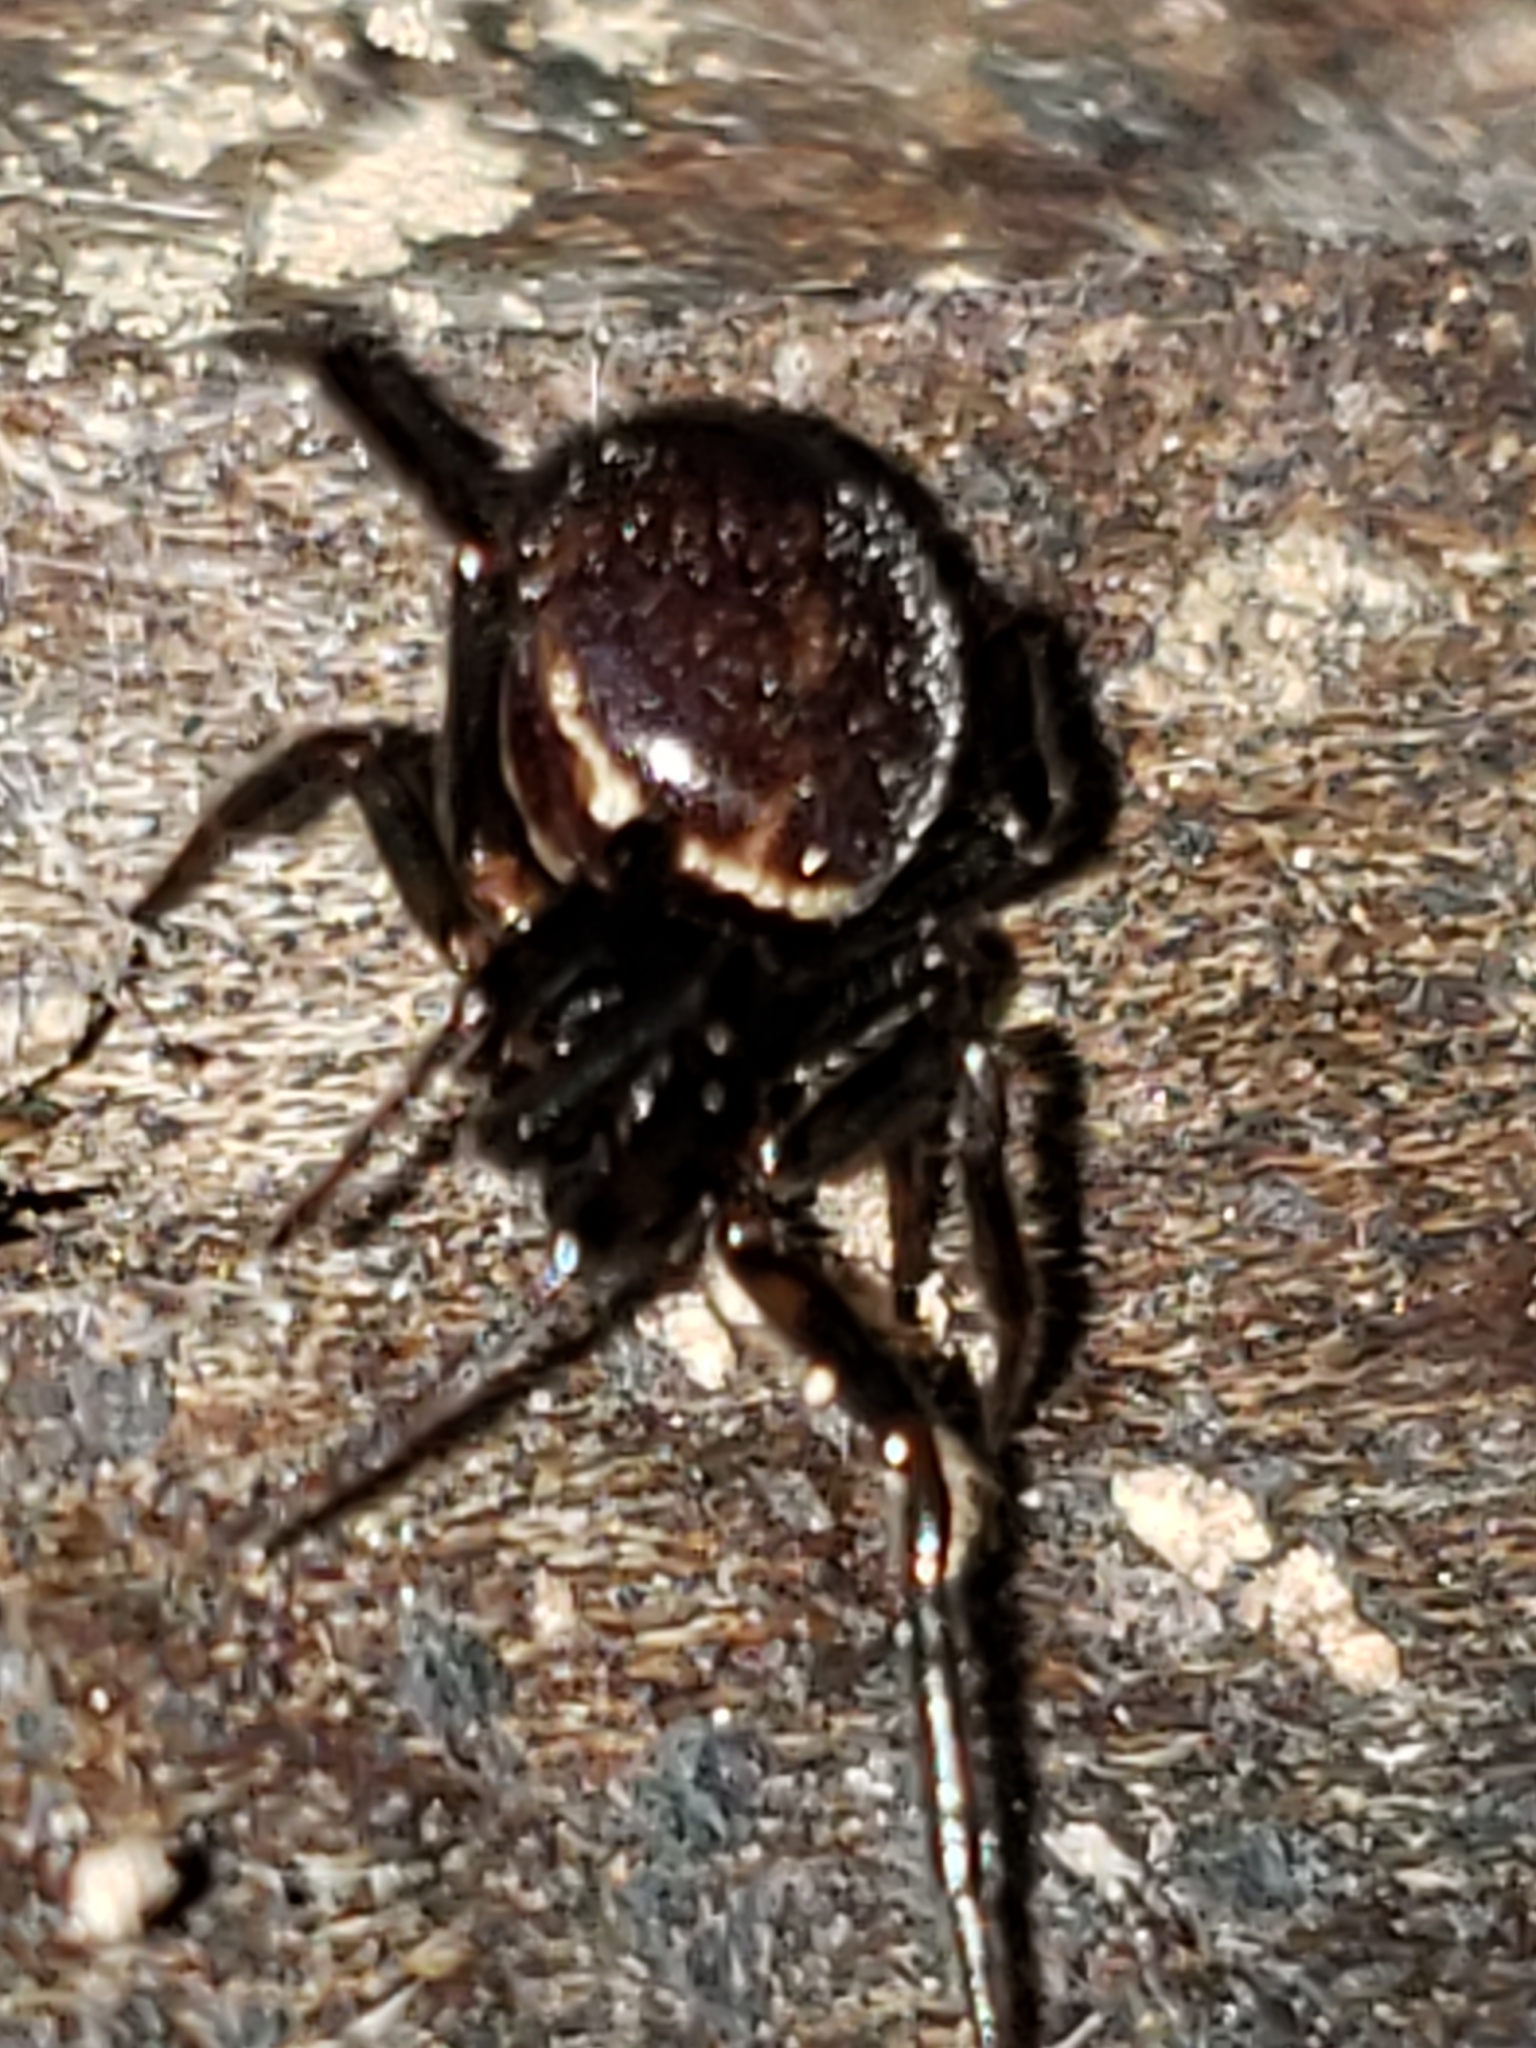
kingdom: Animalia
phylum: Arthropoda
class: Arachnida
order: Araneae
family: Theridiidae
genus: Steatoda
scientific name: Steatoda borealis
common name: Boreal combfoot
